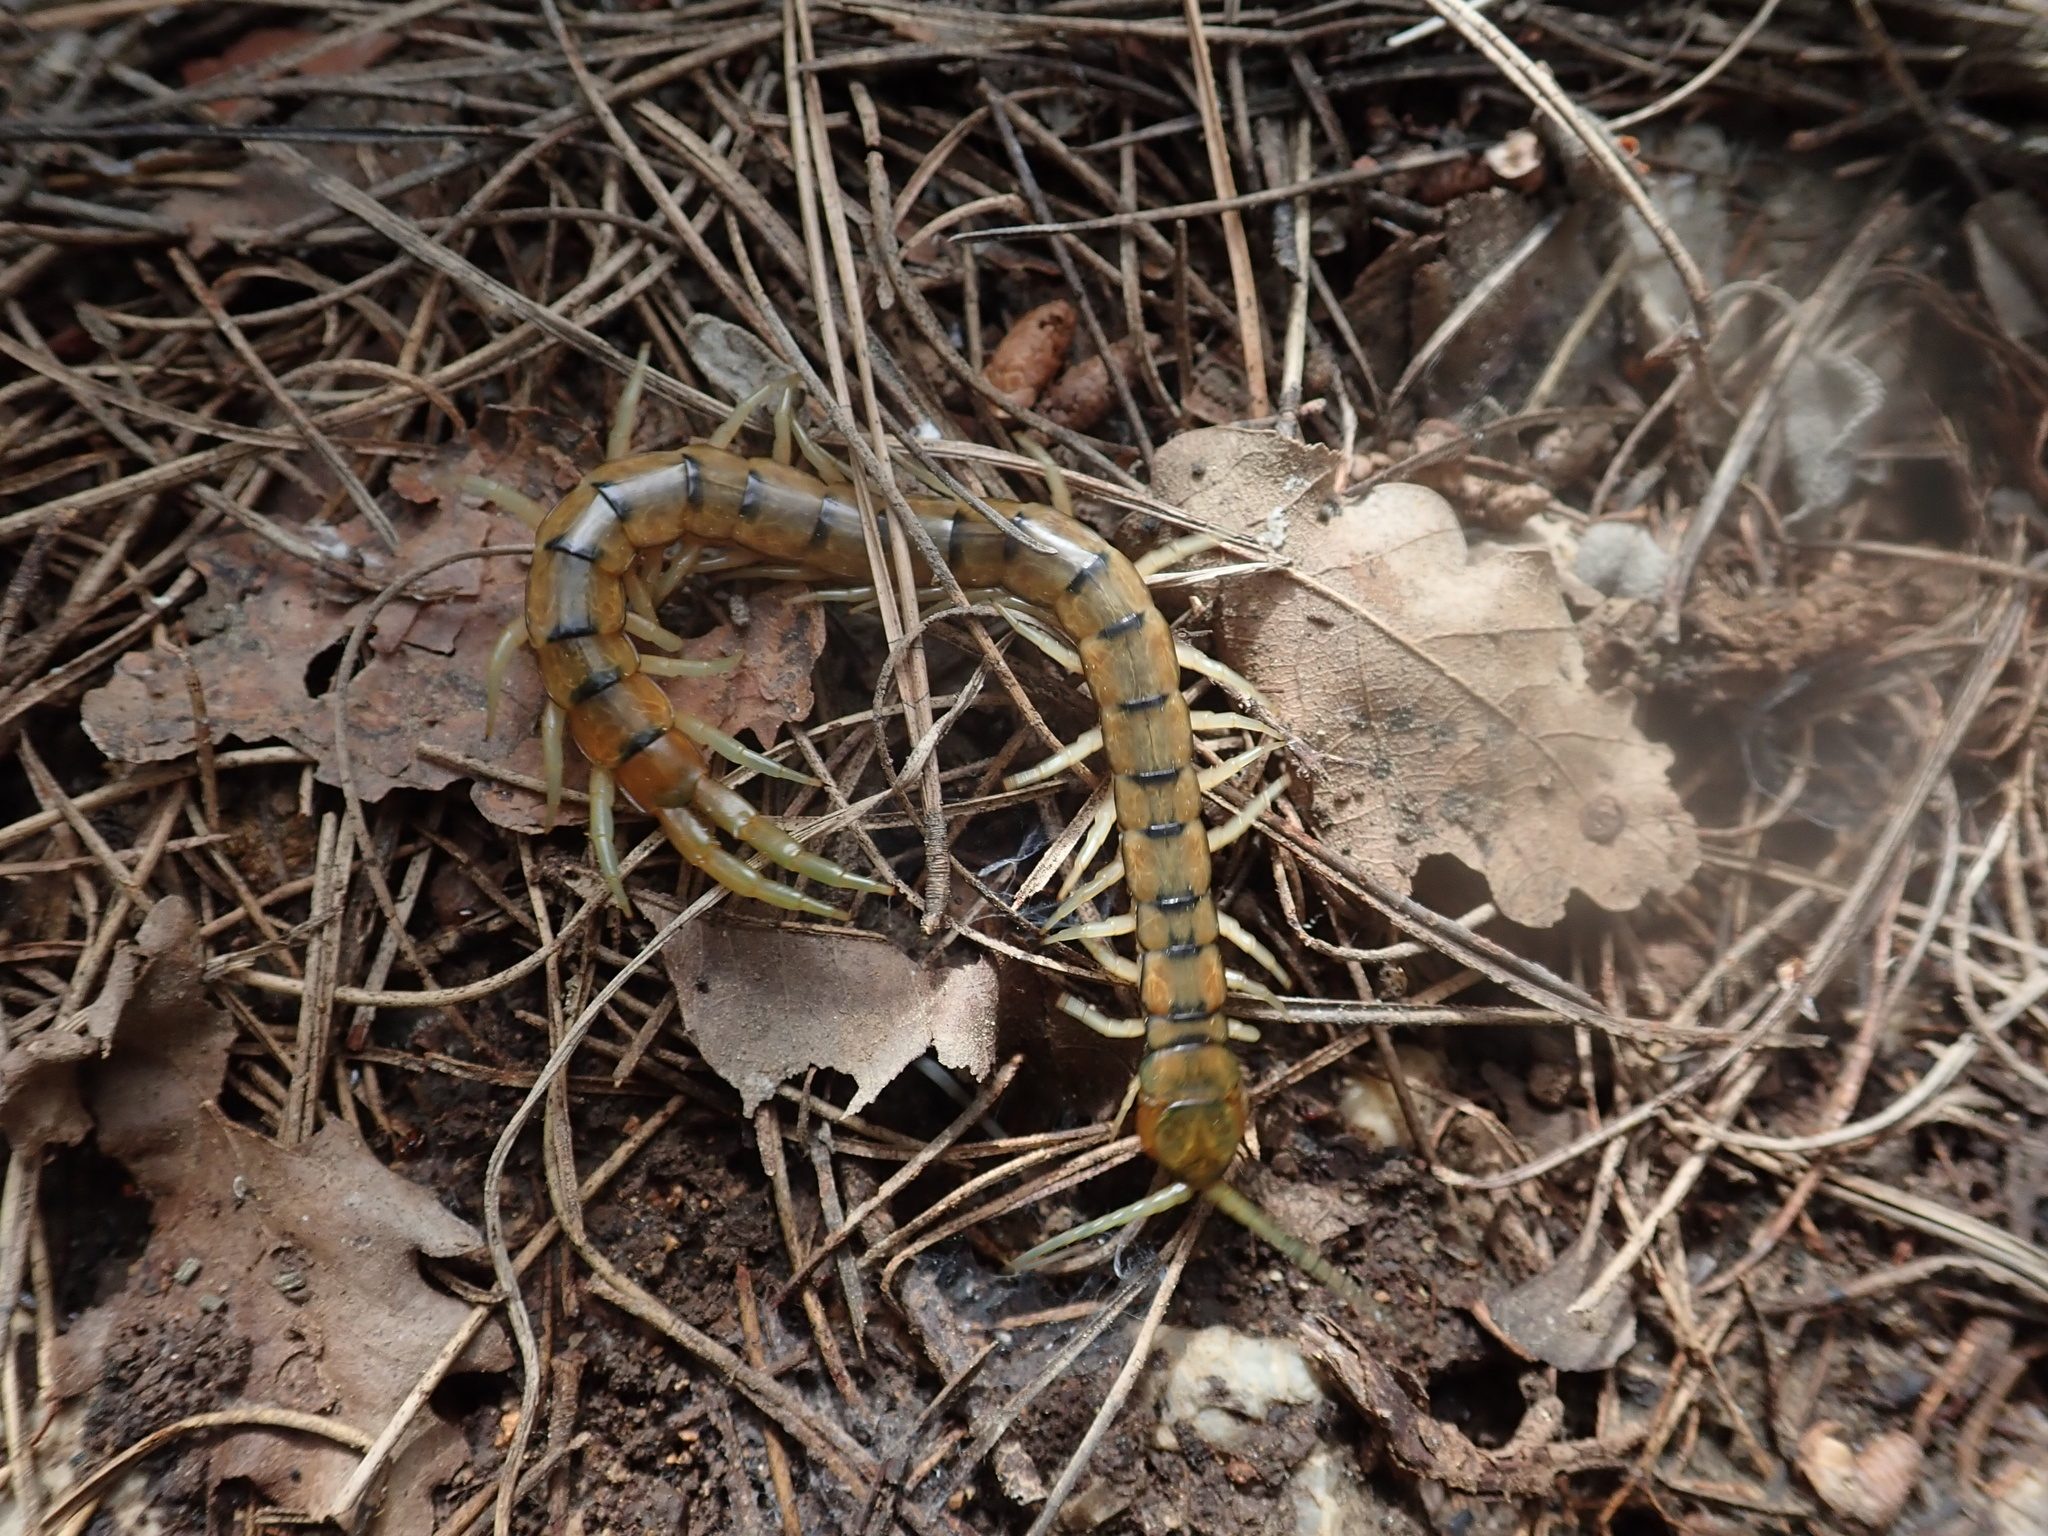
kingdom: Animalia
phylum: Arthropoda
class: Chilopoda
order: Scolopendromorpha
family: Scolopendridae
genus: Scolopendra
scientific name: Scolopendra cingulata
